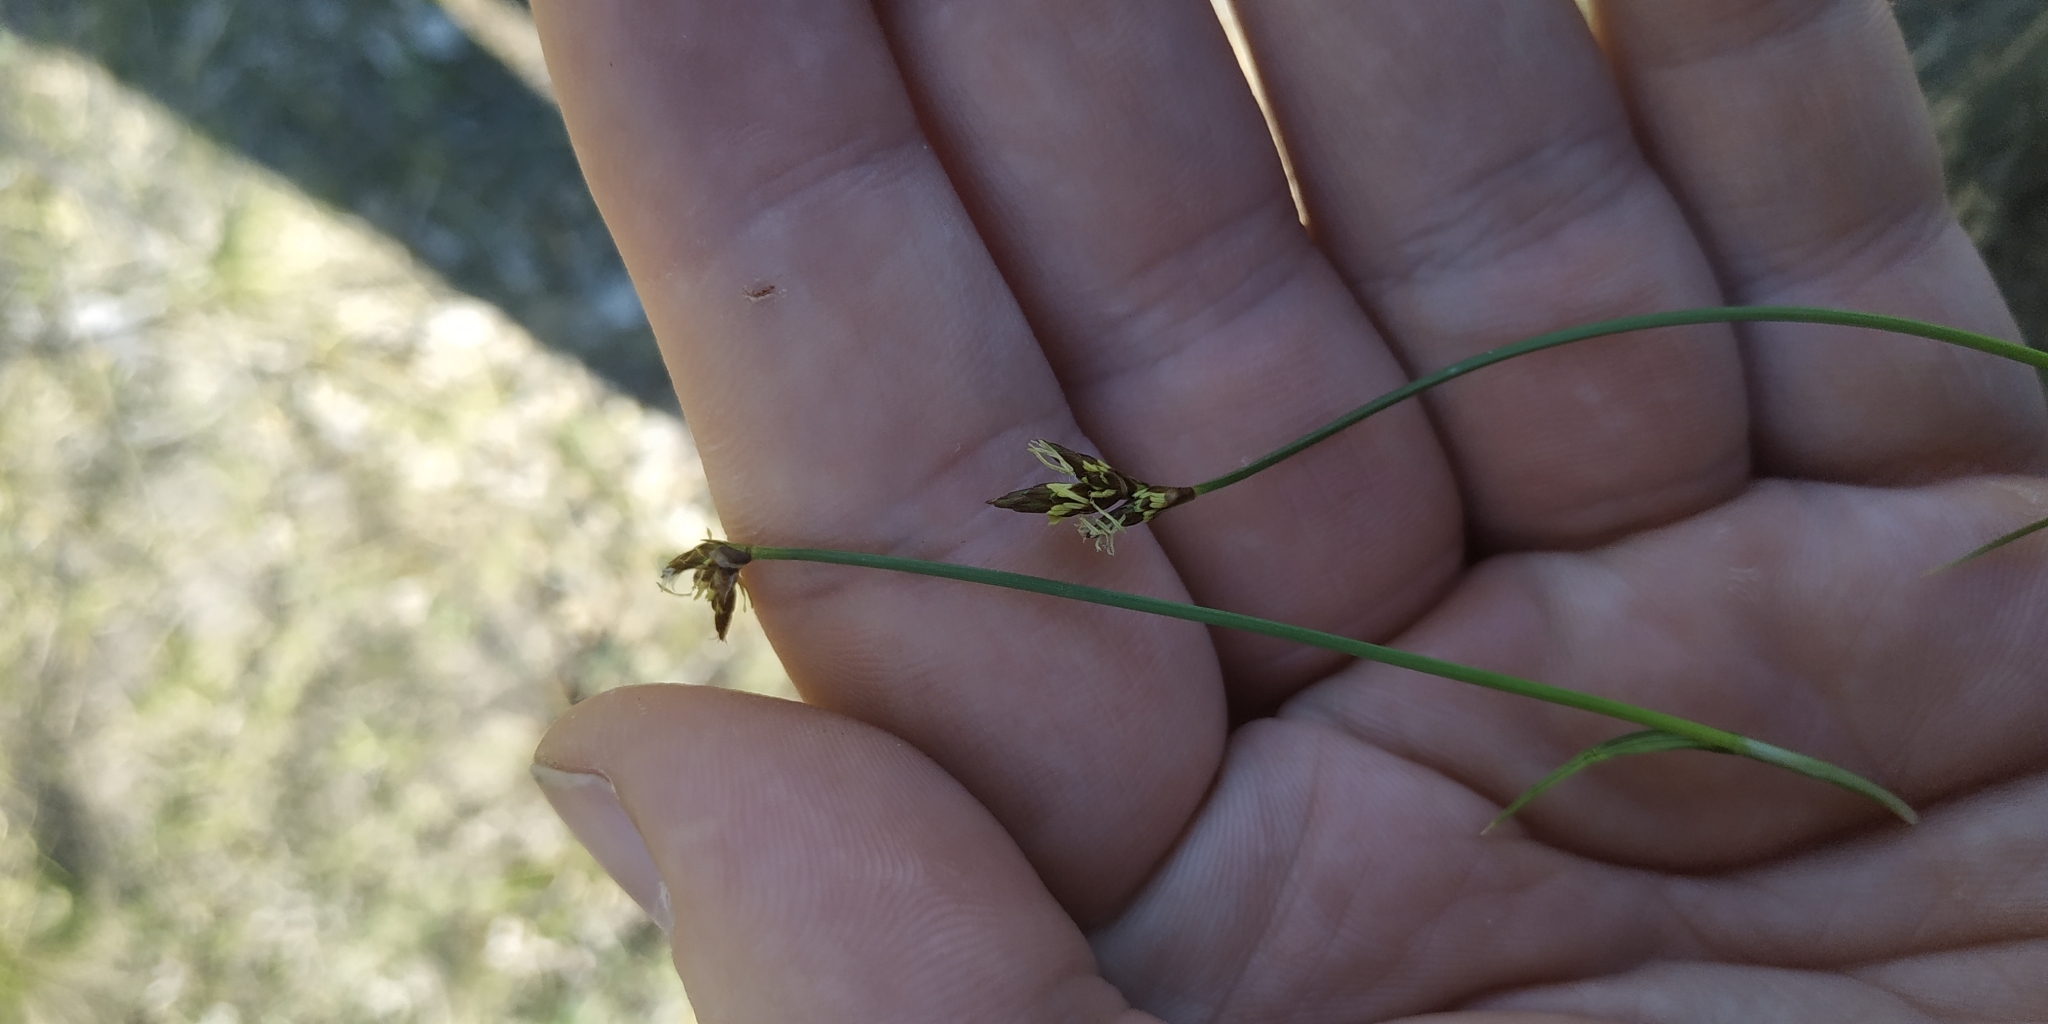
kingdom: Plantae
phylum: Tracheophyta
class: Liliopsida
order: Poales
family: Cyperaceae
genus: Carex
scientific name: Carex praecox
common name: Early sedge
